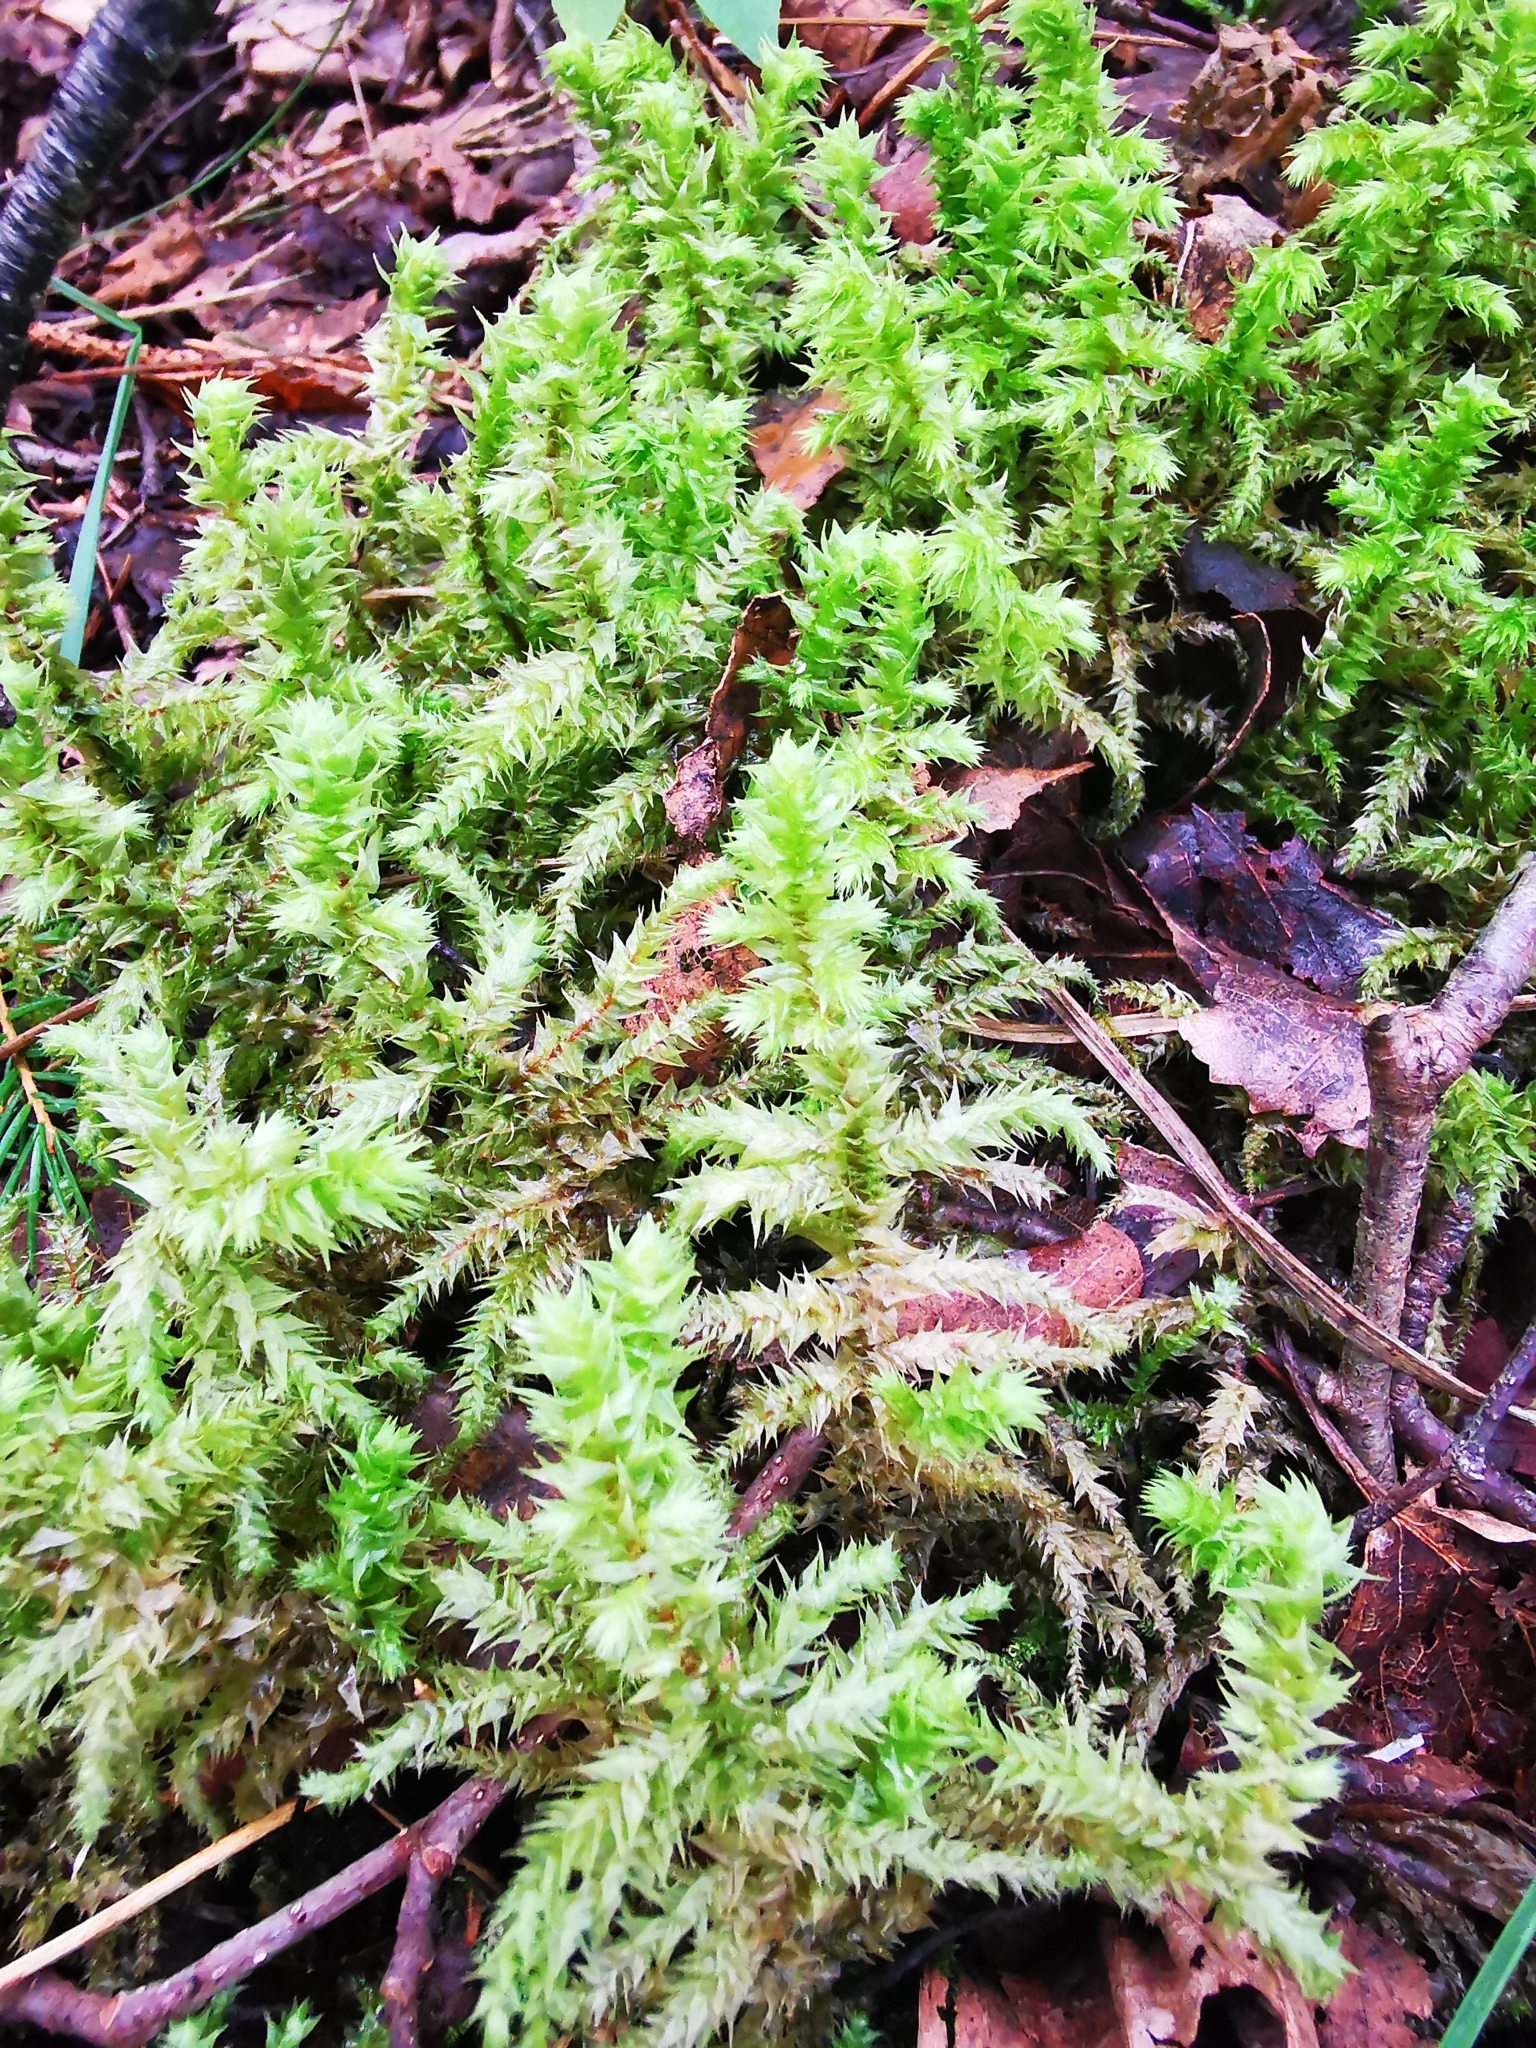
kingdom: Plantae
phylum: Bryophyta
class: Bryopsida
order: Hypnales
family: Hylocomiaceae
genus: Hylocomiadelphus
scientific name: Hylocomiadelphus triquetrus
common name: Rough goose neck moss
